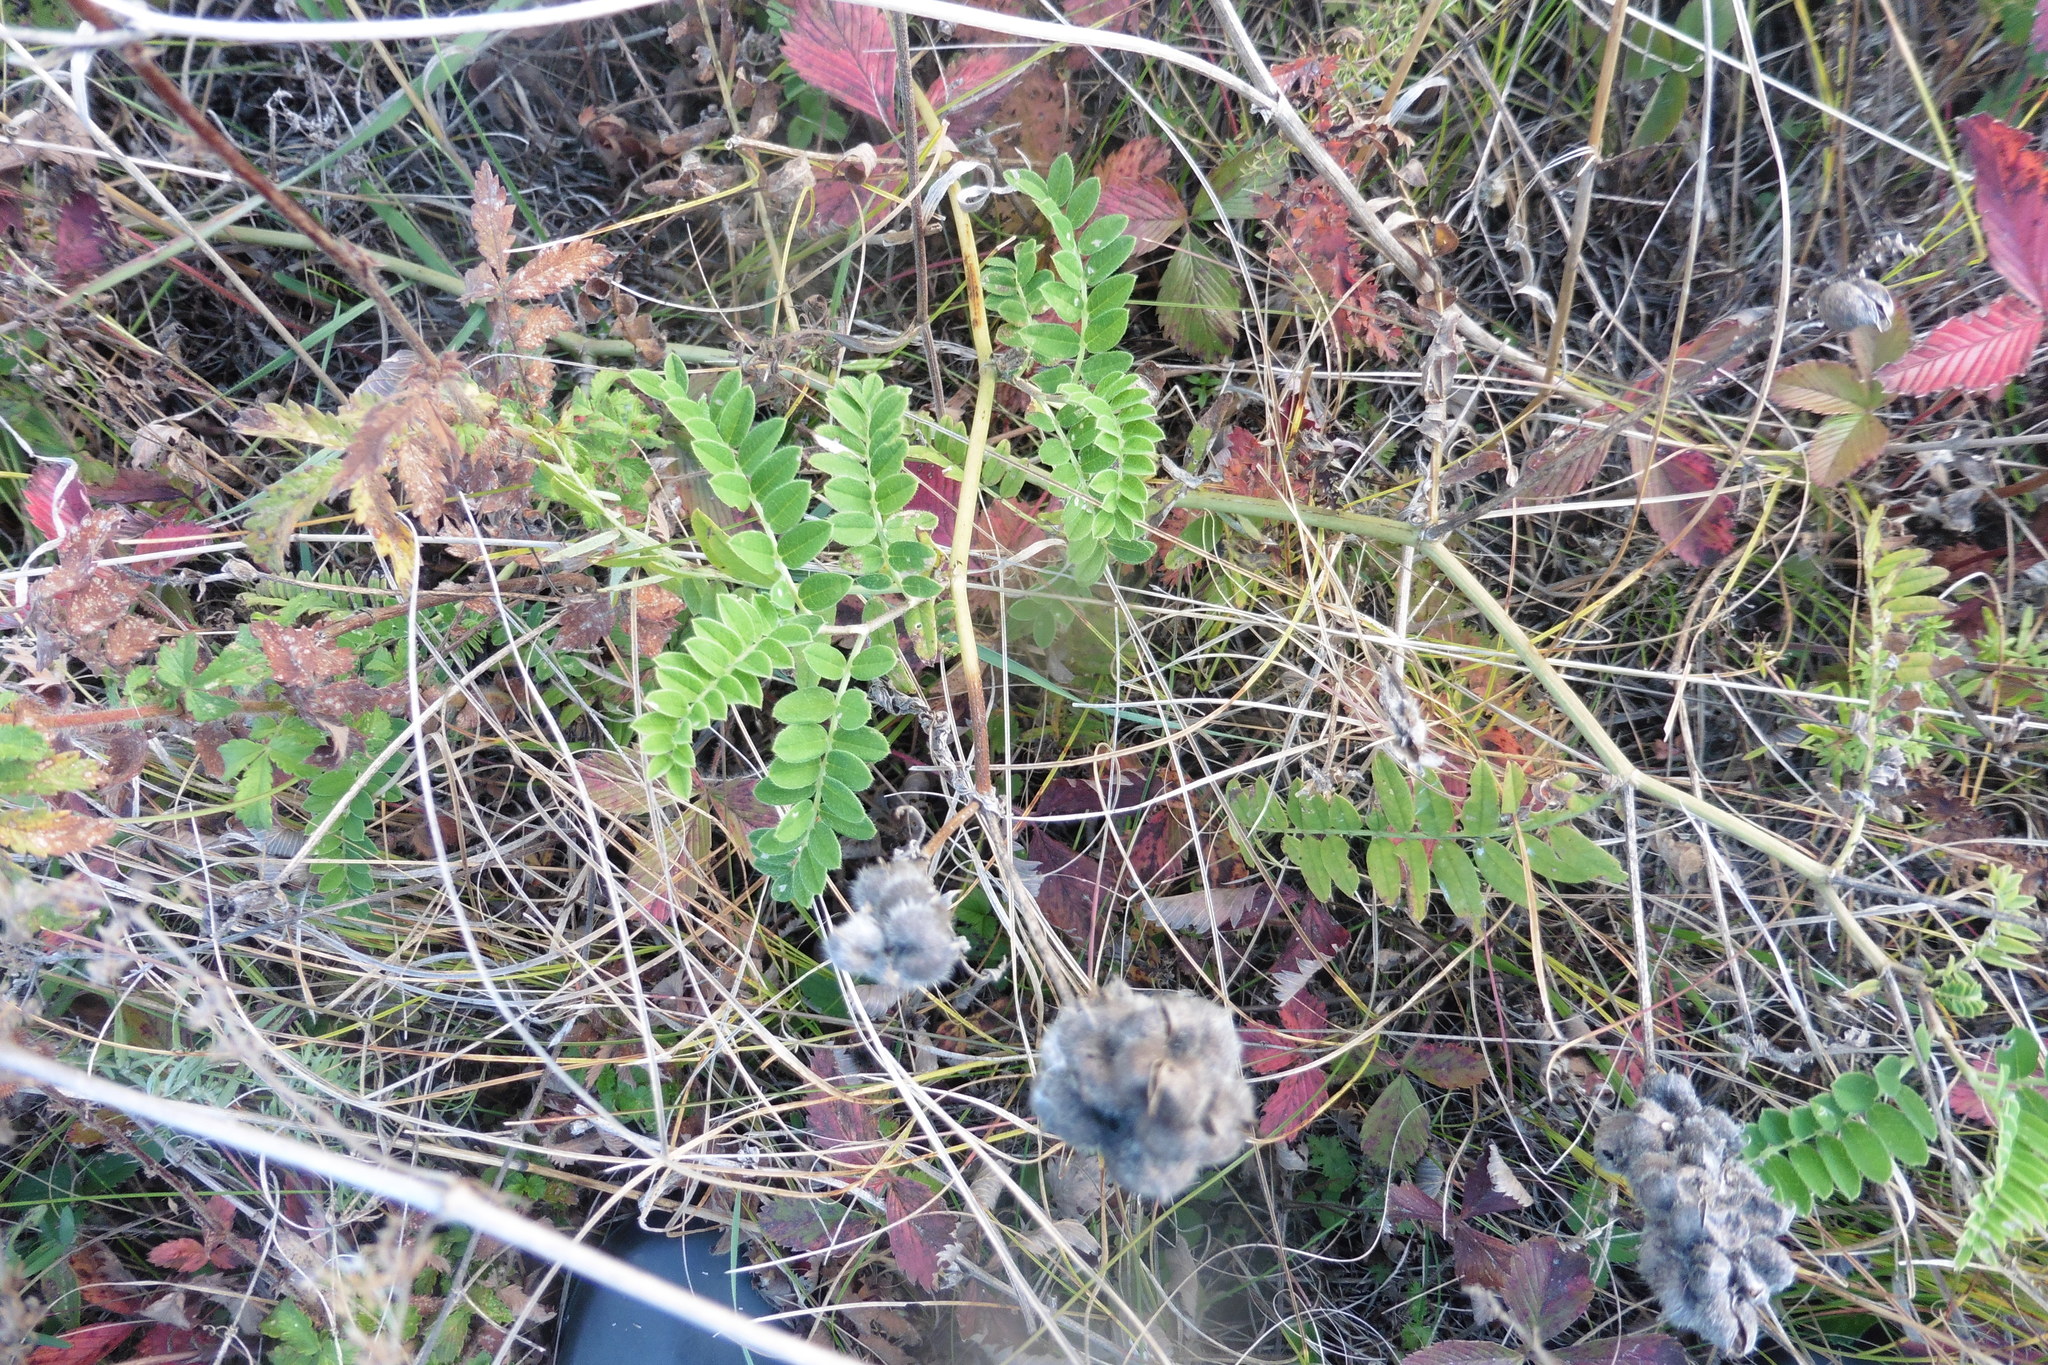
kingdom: Plantae
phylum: Tracheophyta
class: Magnoliopsida
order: Fabales
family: Fabaceae
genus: Astragalus
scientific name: Astragalus cicer
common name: Chick-pea milk-vetch
